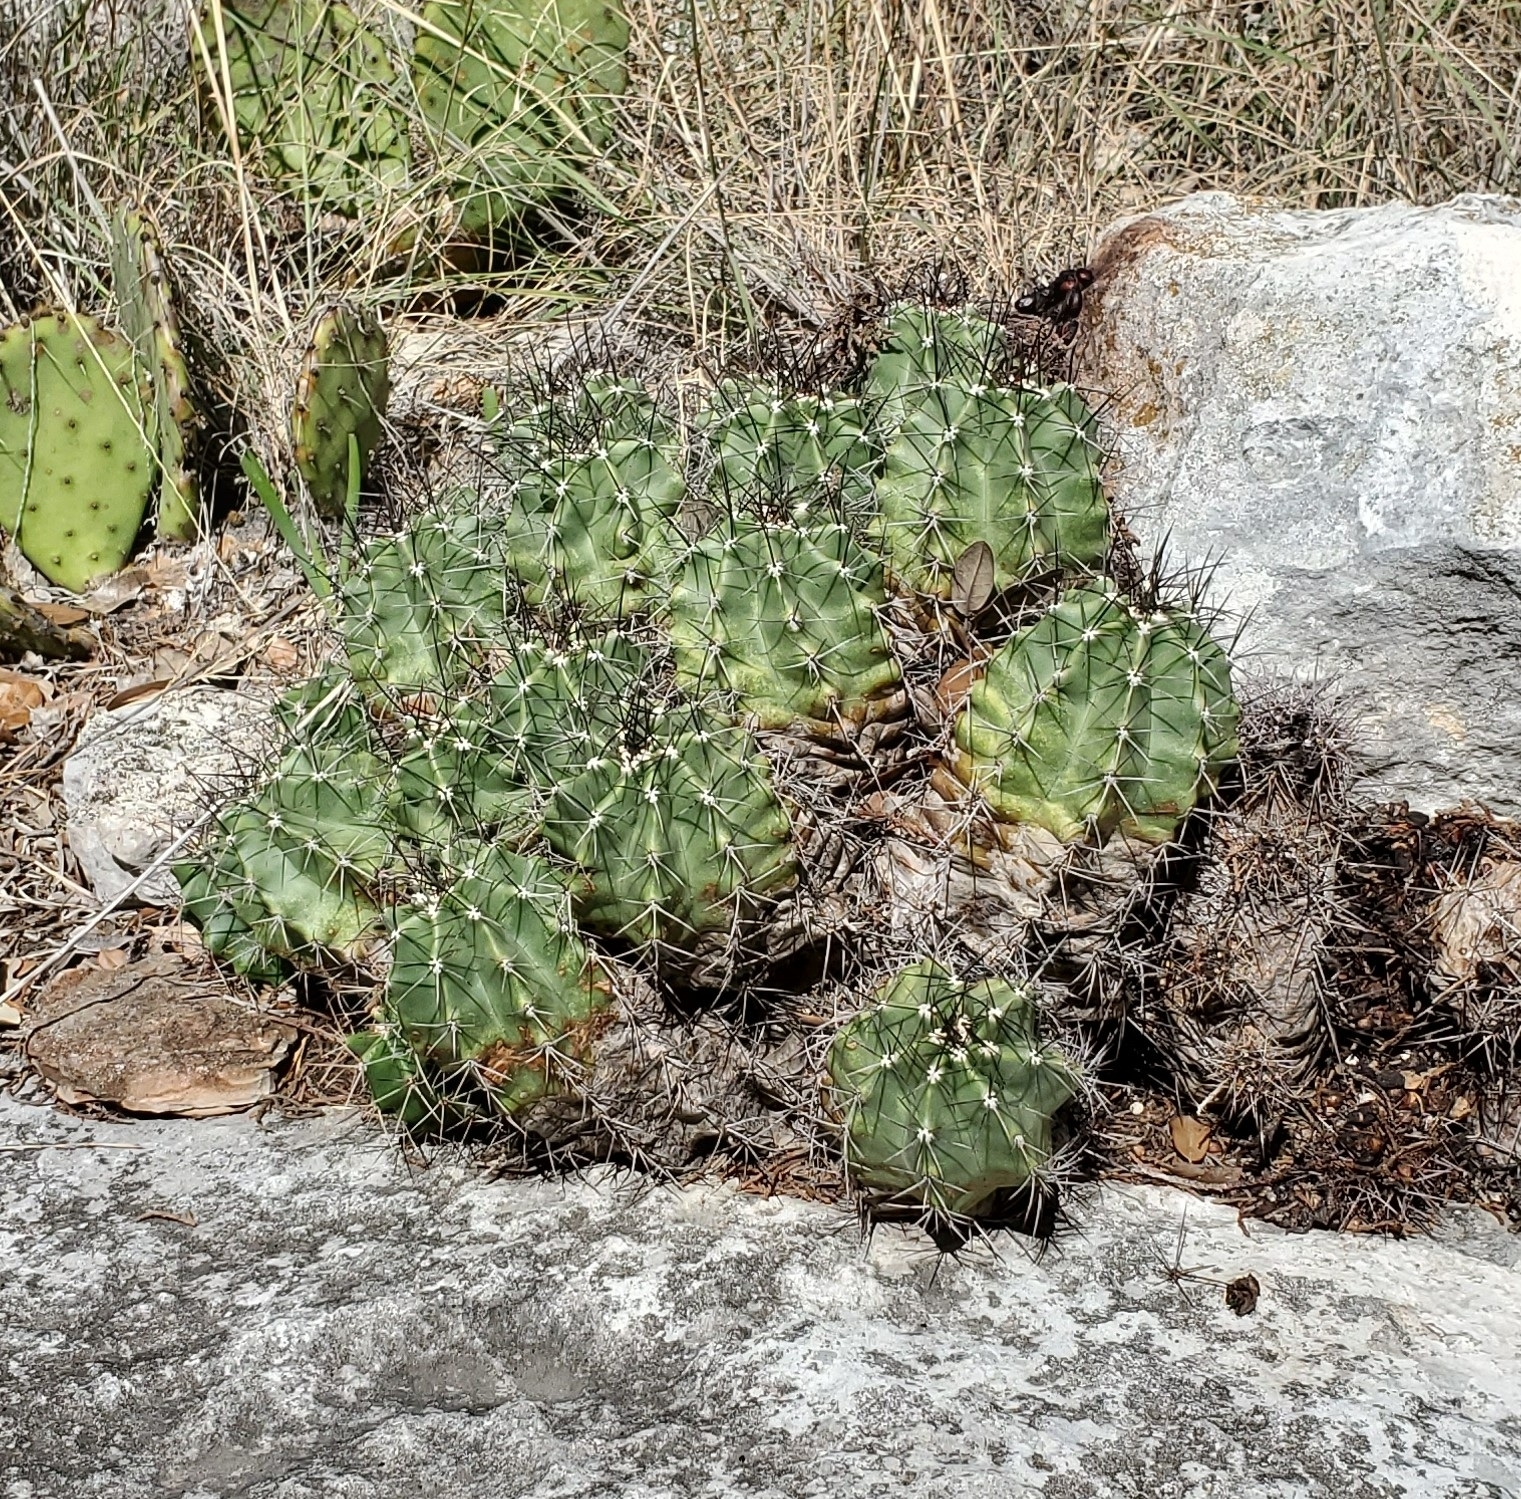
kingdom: Plantae
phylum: Tracheophyta
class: Magnoliopsida
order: Caryophyllales
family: Cactaceae
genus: Echinocereus
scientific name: Echinocereus coccineus
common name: Scarlet hedgehog cactus
